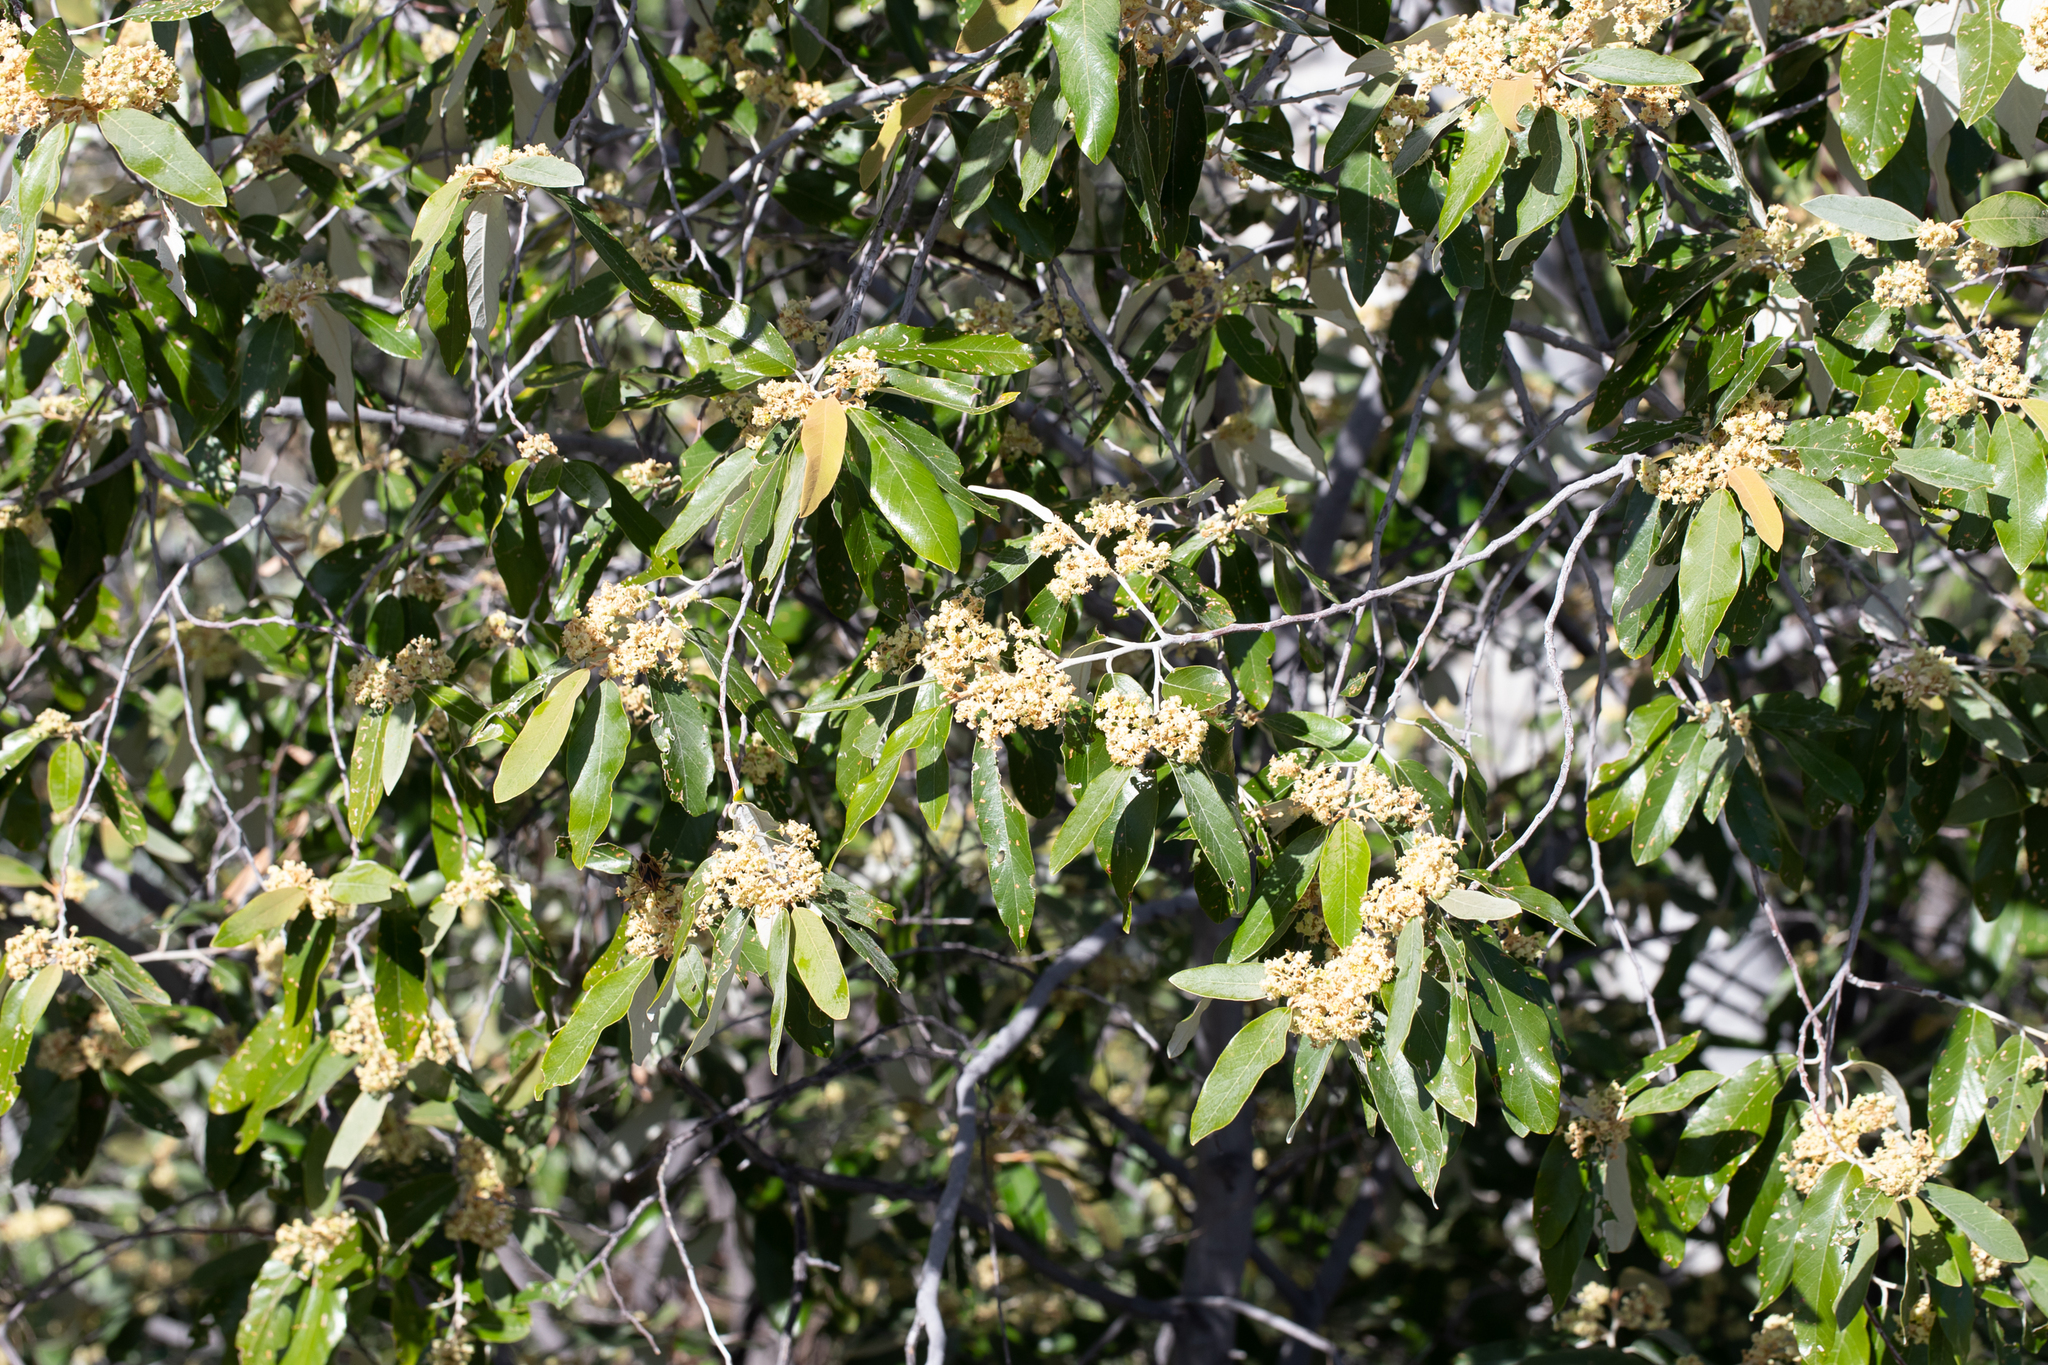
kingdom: Plantae
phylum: Tracheophyta
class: Magnoliopsida
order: Rosales
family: Rhamnaceae
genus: Alphitonia
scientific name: Alphitonia excelsa
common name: Red ash
